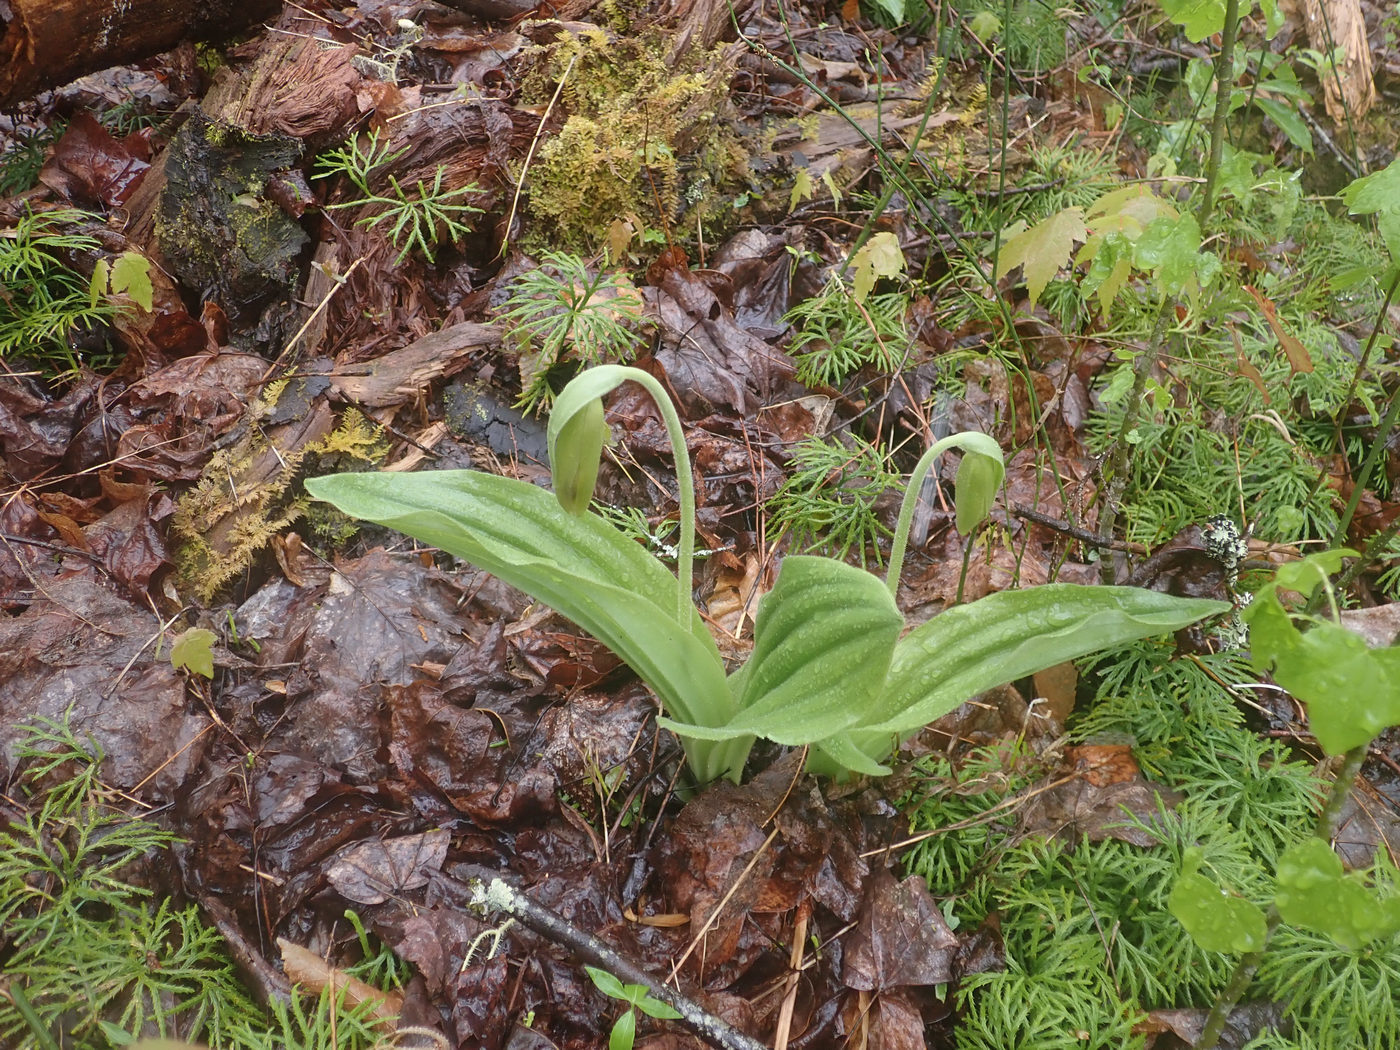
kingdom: Plantae
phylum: Tracheophyta
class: Liliopsida
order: Asparagales
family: Orchidaceae
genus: Cypripedium
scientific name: Cypripedium acaule
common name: Pink lady's-slipper
